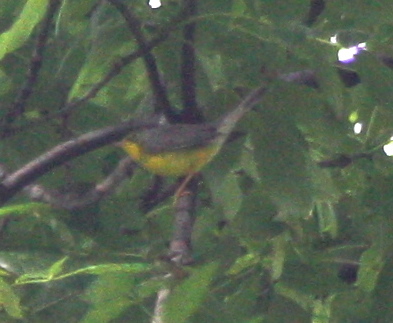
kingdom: Animalia
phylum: Chordata
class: Aves
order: Passeriformes
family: Parulidae
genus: Cardellina
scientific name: Cardellina canadensis
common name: Canada warbler
